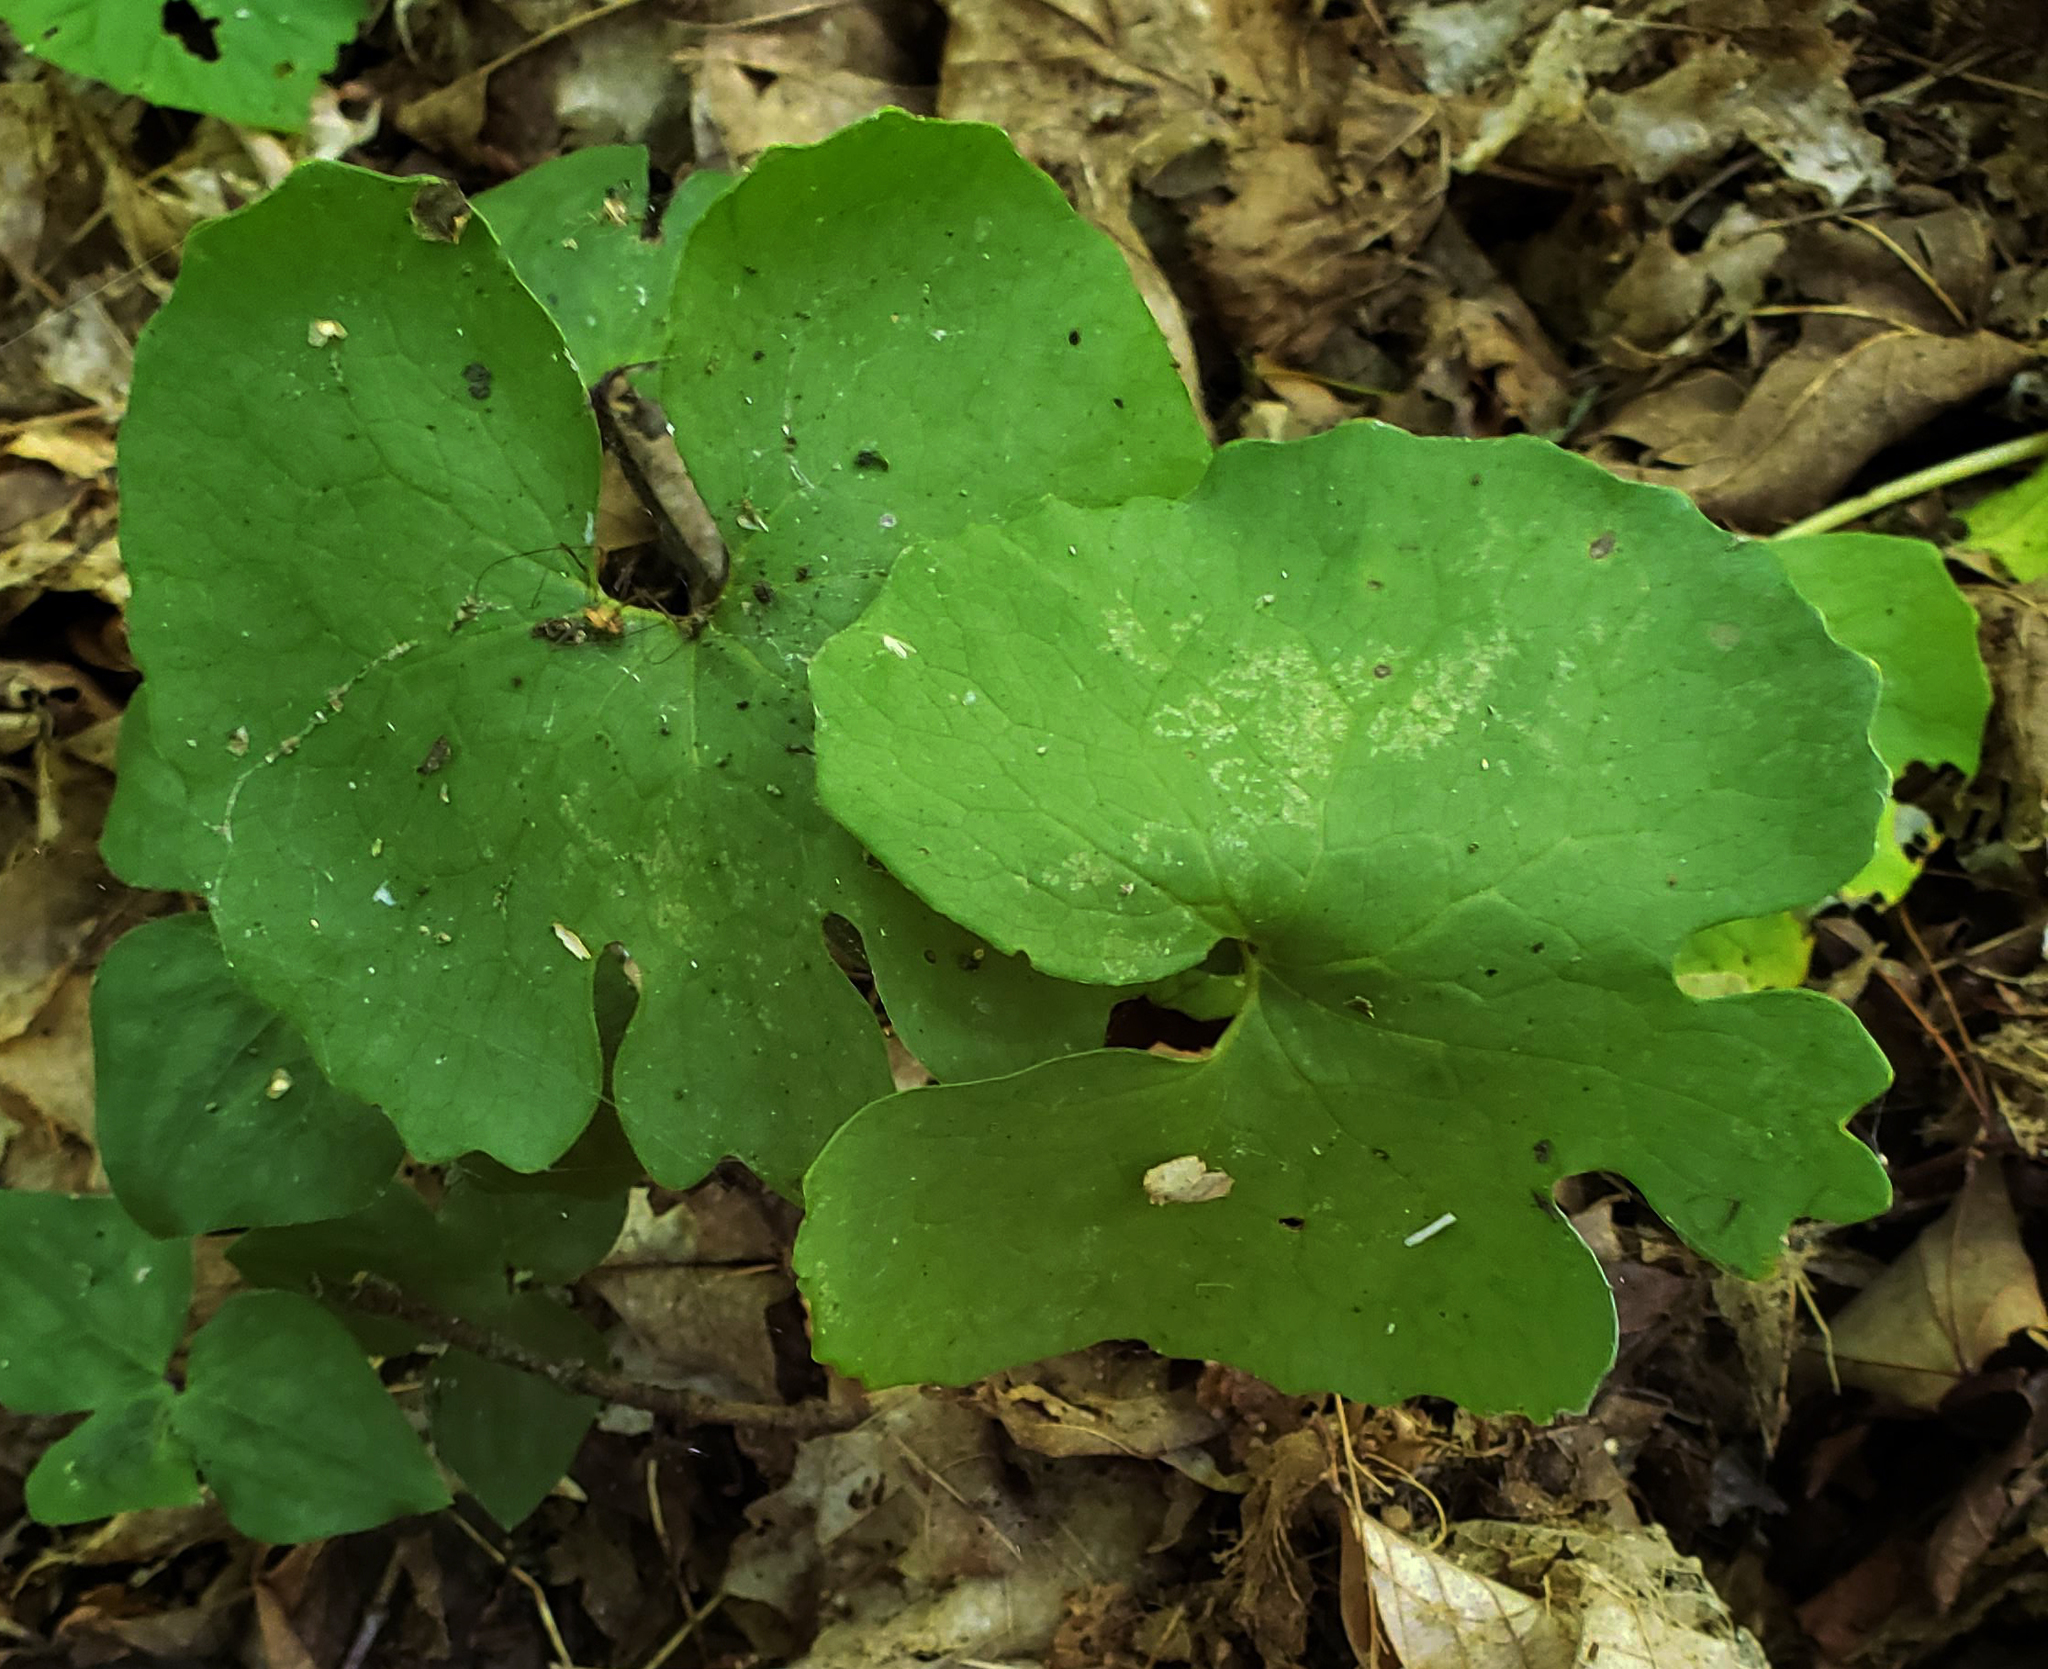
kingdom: Plantae
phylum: Tracheophyta
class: Magnoliopsida
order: Ranunculales
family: Papaveraceae
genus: Sanguinaria
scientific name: Sanguinaria canadensis
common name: Bloodroot
